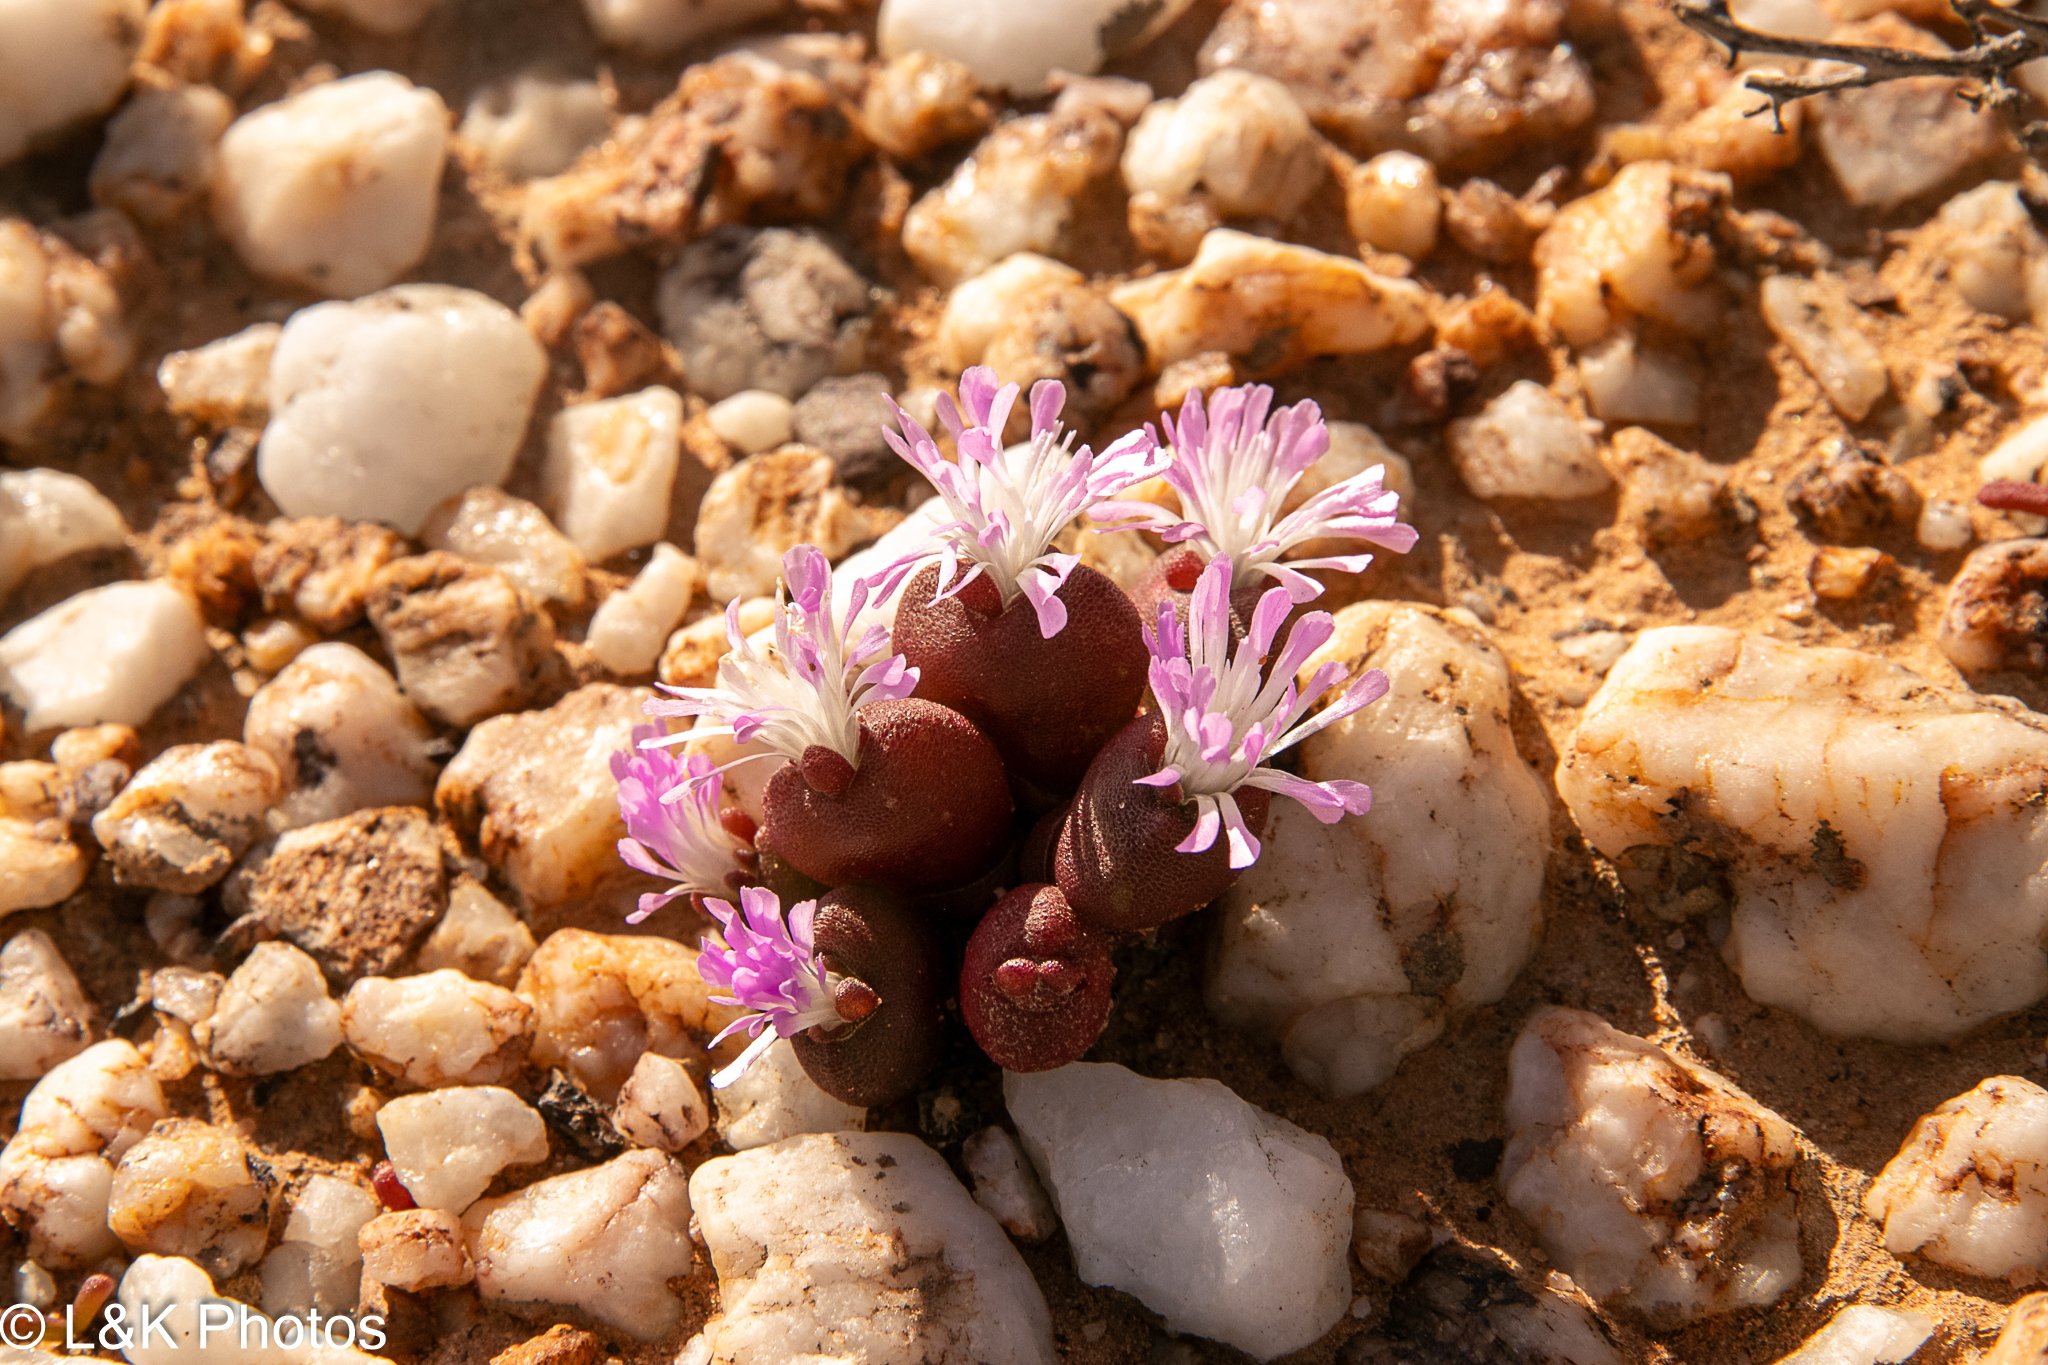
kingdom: Plantae
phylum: Tracheophyta
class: Magnoliopsida
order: Caryophyllales
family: Aizoaceae
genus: Oophytum
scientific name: Oophytum nanum
